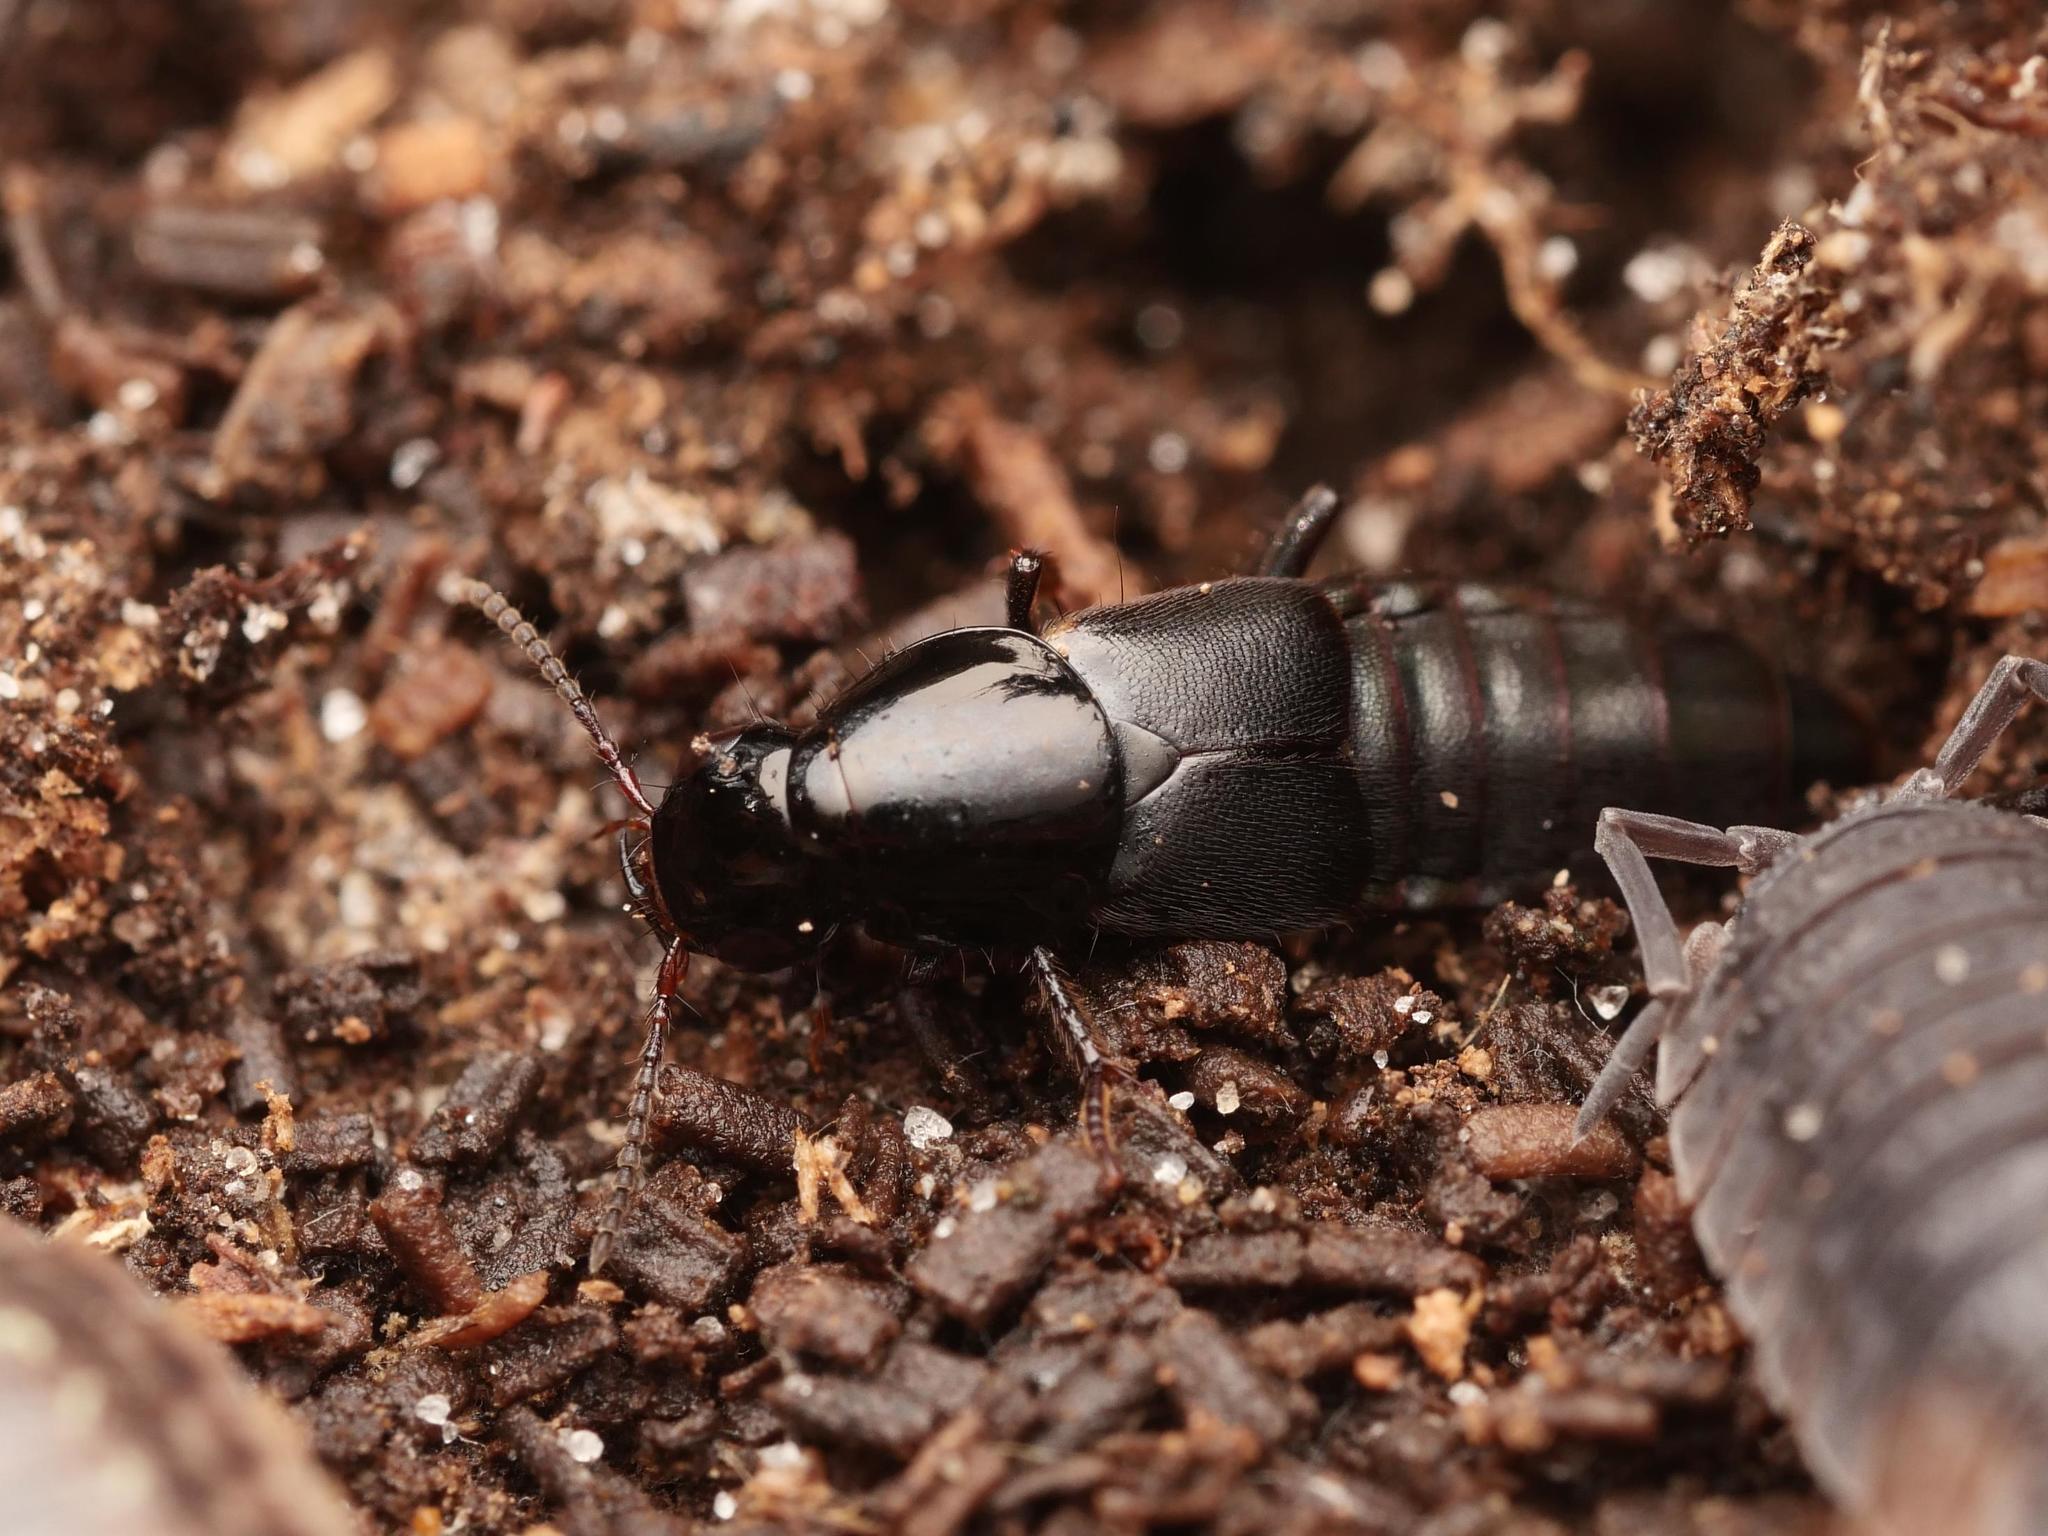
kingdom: Animalia
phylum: Arthropoda
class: Insecta
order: Coleoptera
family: Staphylinidae
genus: Quedius
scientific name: Quedius lateralis
